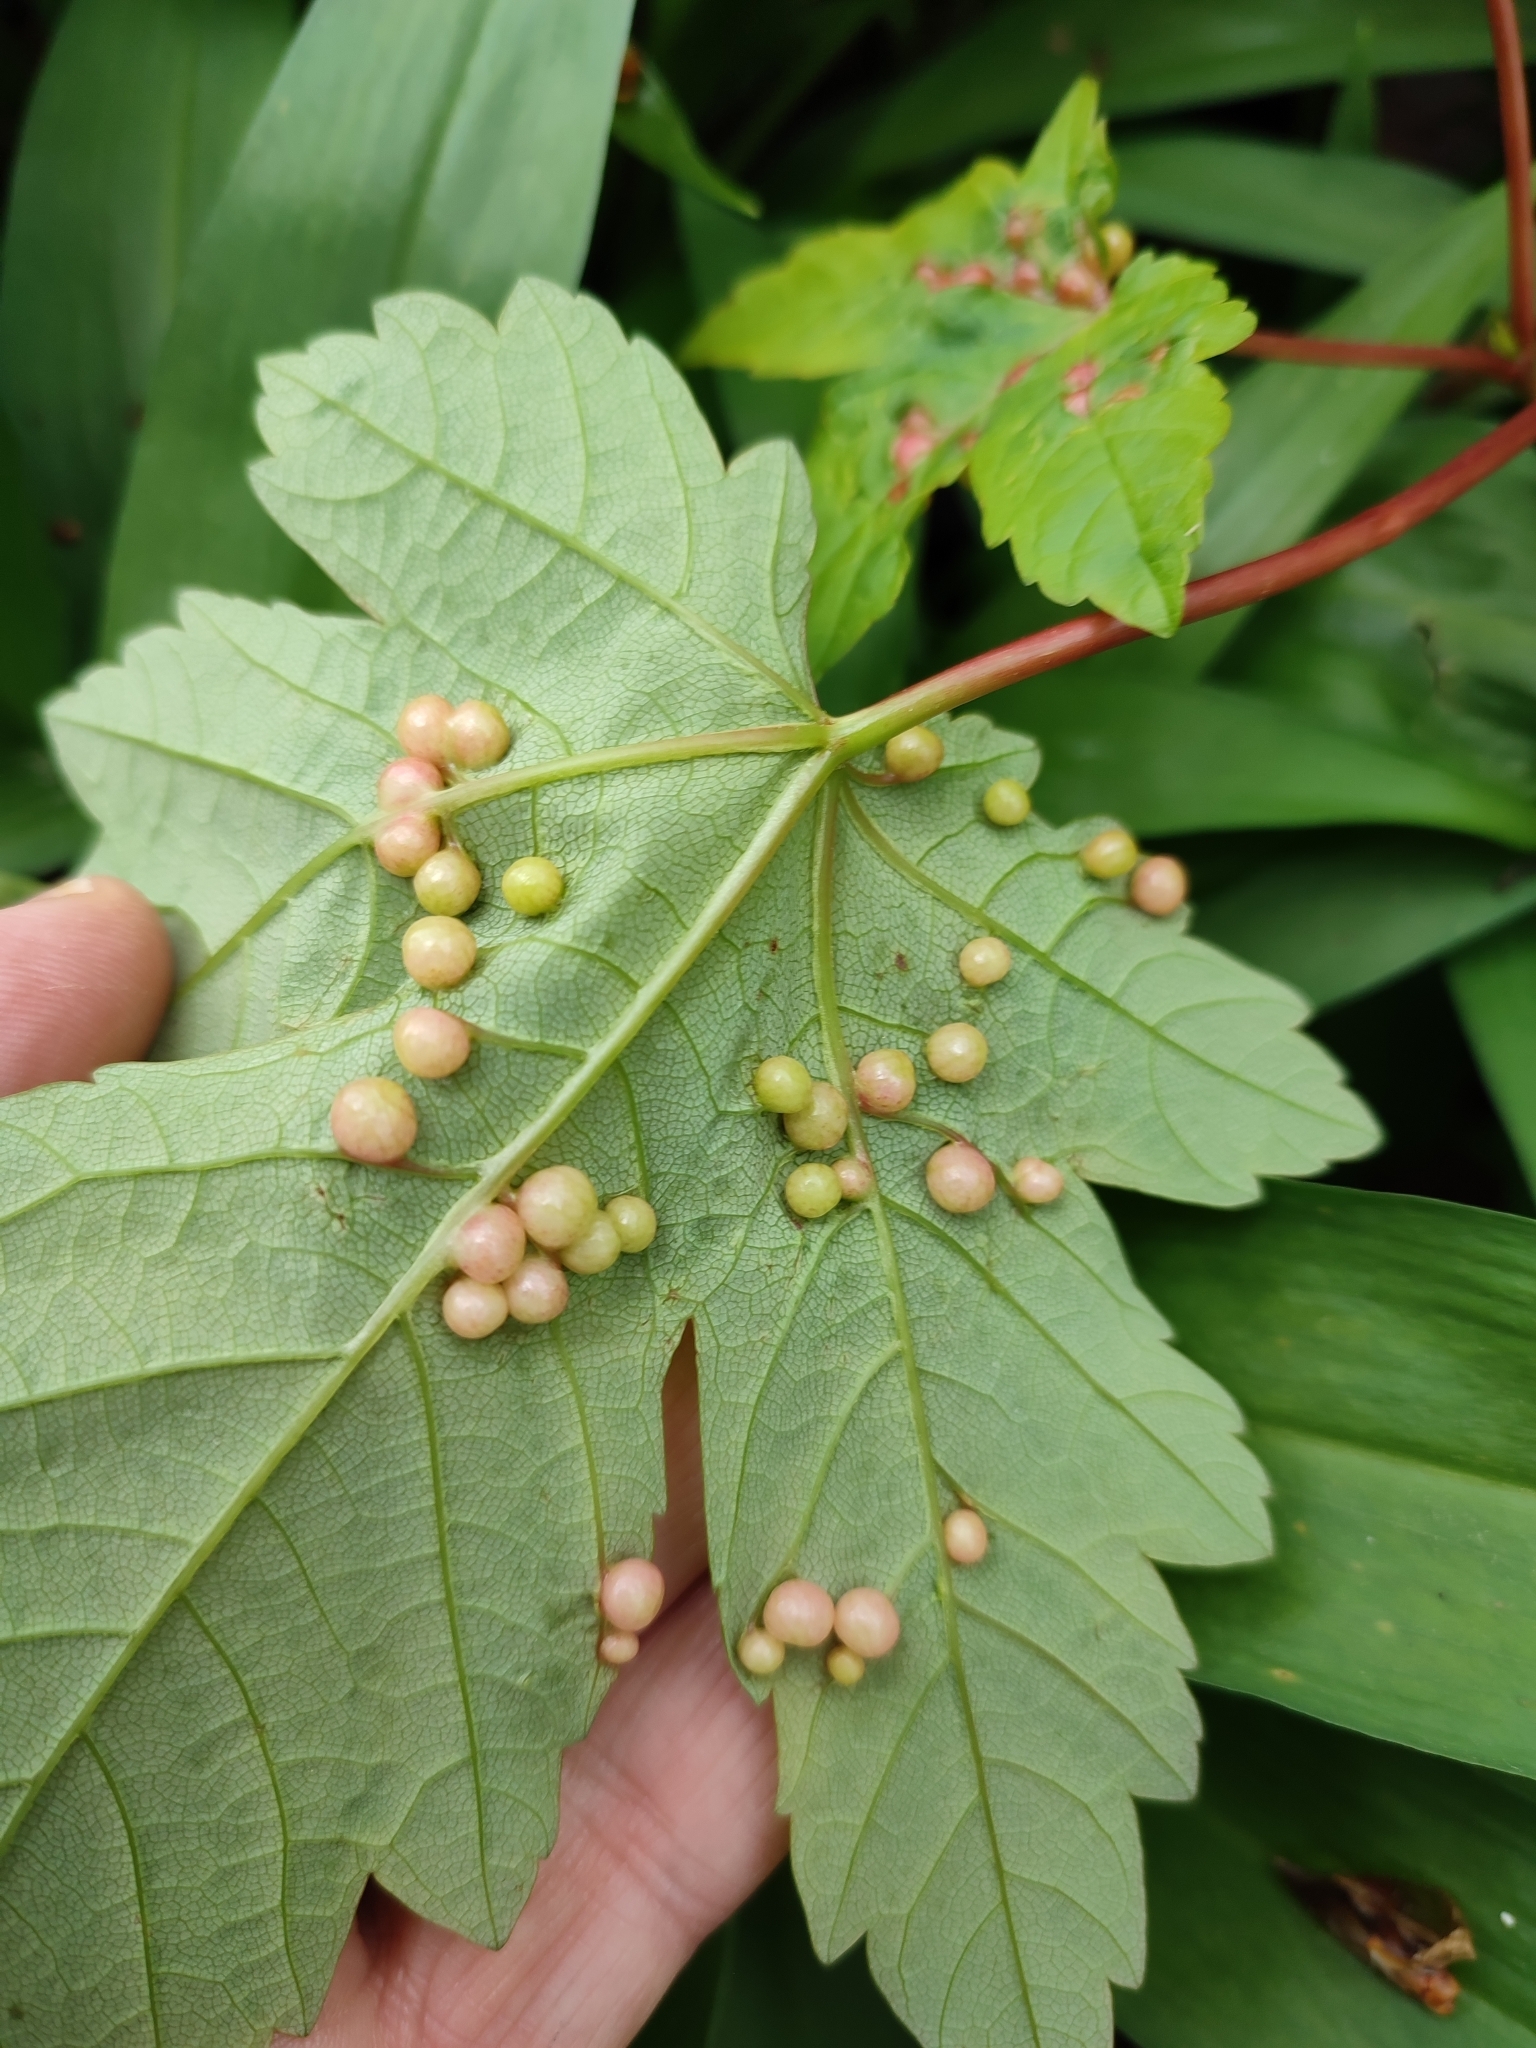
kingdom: Animalia
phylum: Arthropoda
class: Insecta
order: Hymenoptera
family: Cynipidae
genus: Pediaspis
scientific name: Pediaspis aceris
